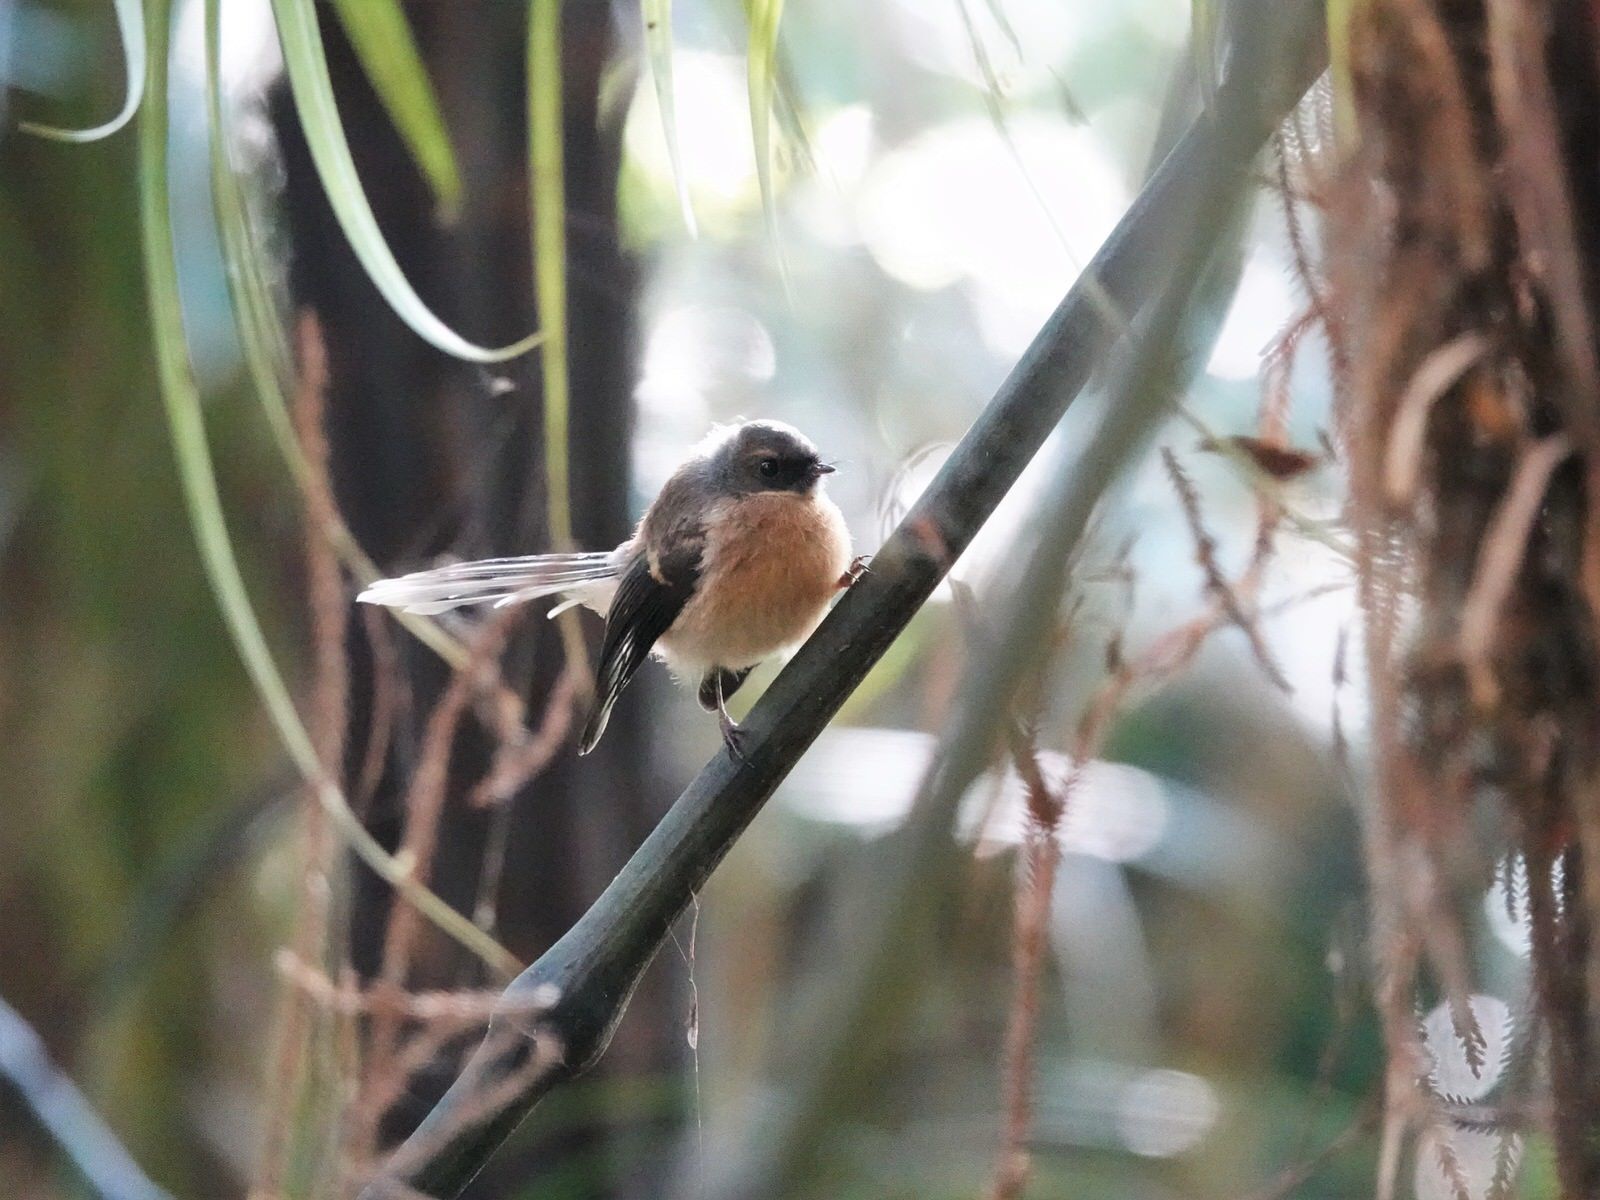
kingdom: Animalia
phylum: Chordata
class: Aves
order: Passeriformes
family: Rhipiduridae
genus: Rhipidura
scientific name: Rhipidura fuliginosa
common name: New zealand fantail
